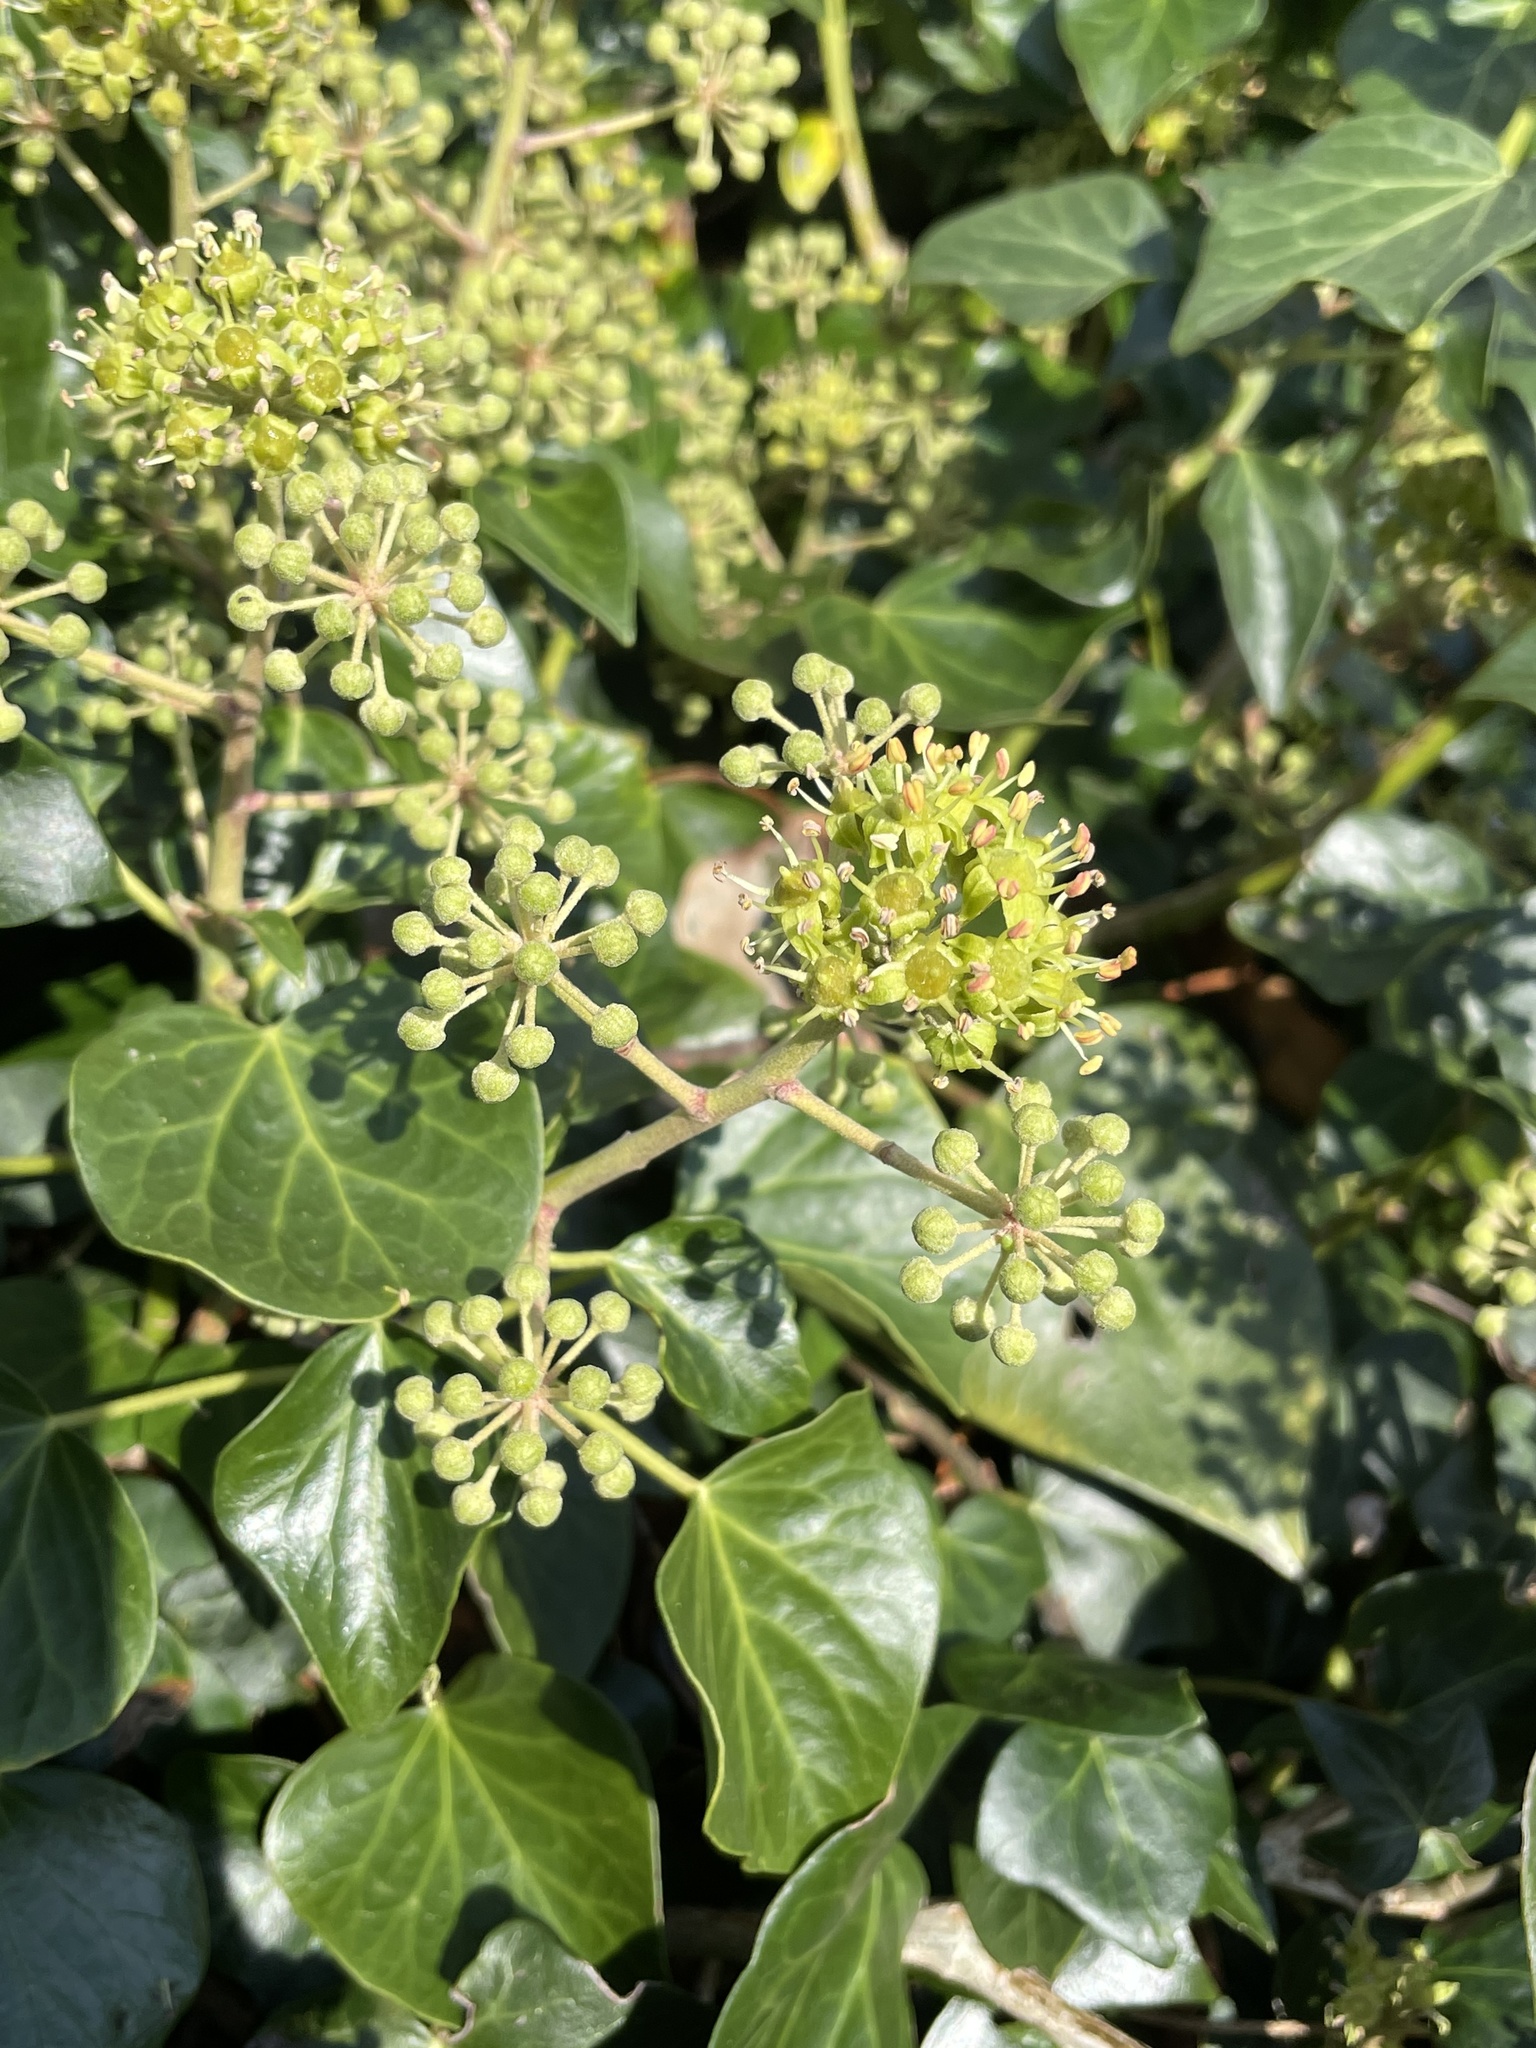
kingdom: Plantae
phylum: Tracheophyta
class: Magnoliopsida
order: Apiales
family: Araliaceae
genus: Hedera
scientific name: Hedera helix
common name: Ivy
